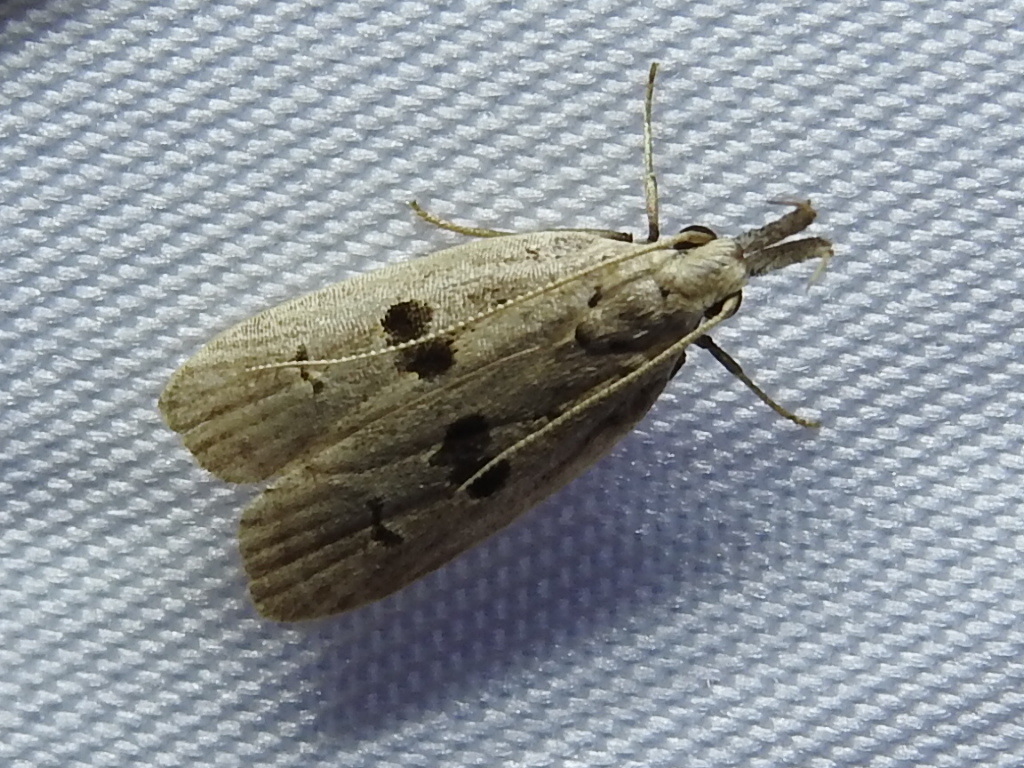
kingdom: Animalia
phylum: Arthropoda
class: Insecta
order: Lepidoptera
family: Gelechiidae
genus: Dichomeris
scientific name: Dichomeris glenni
